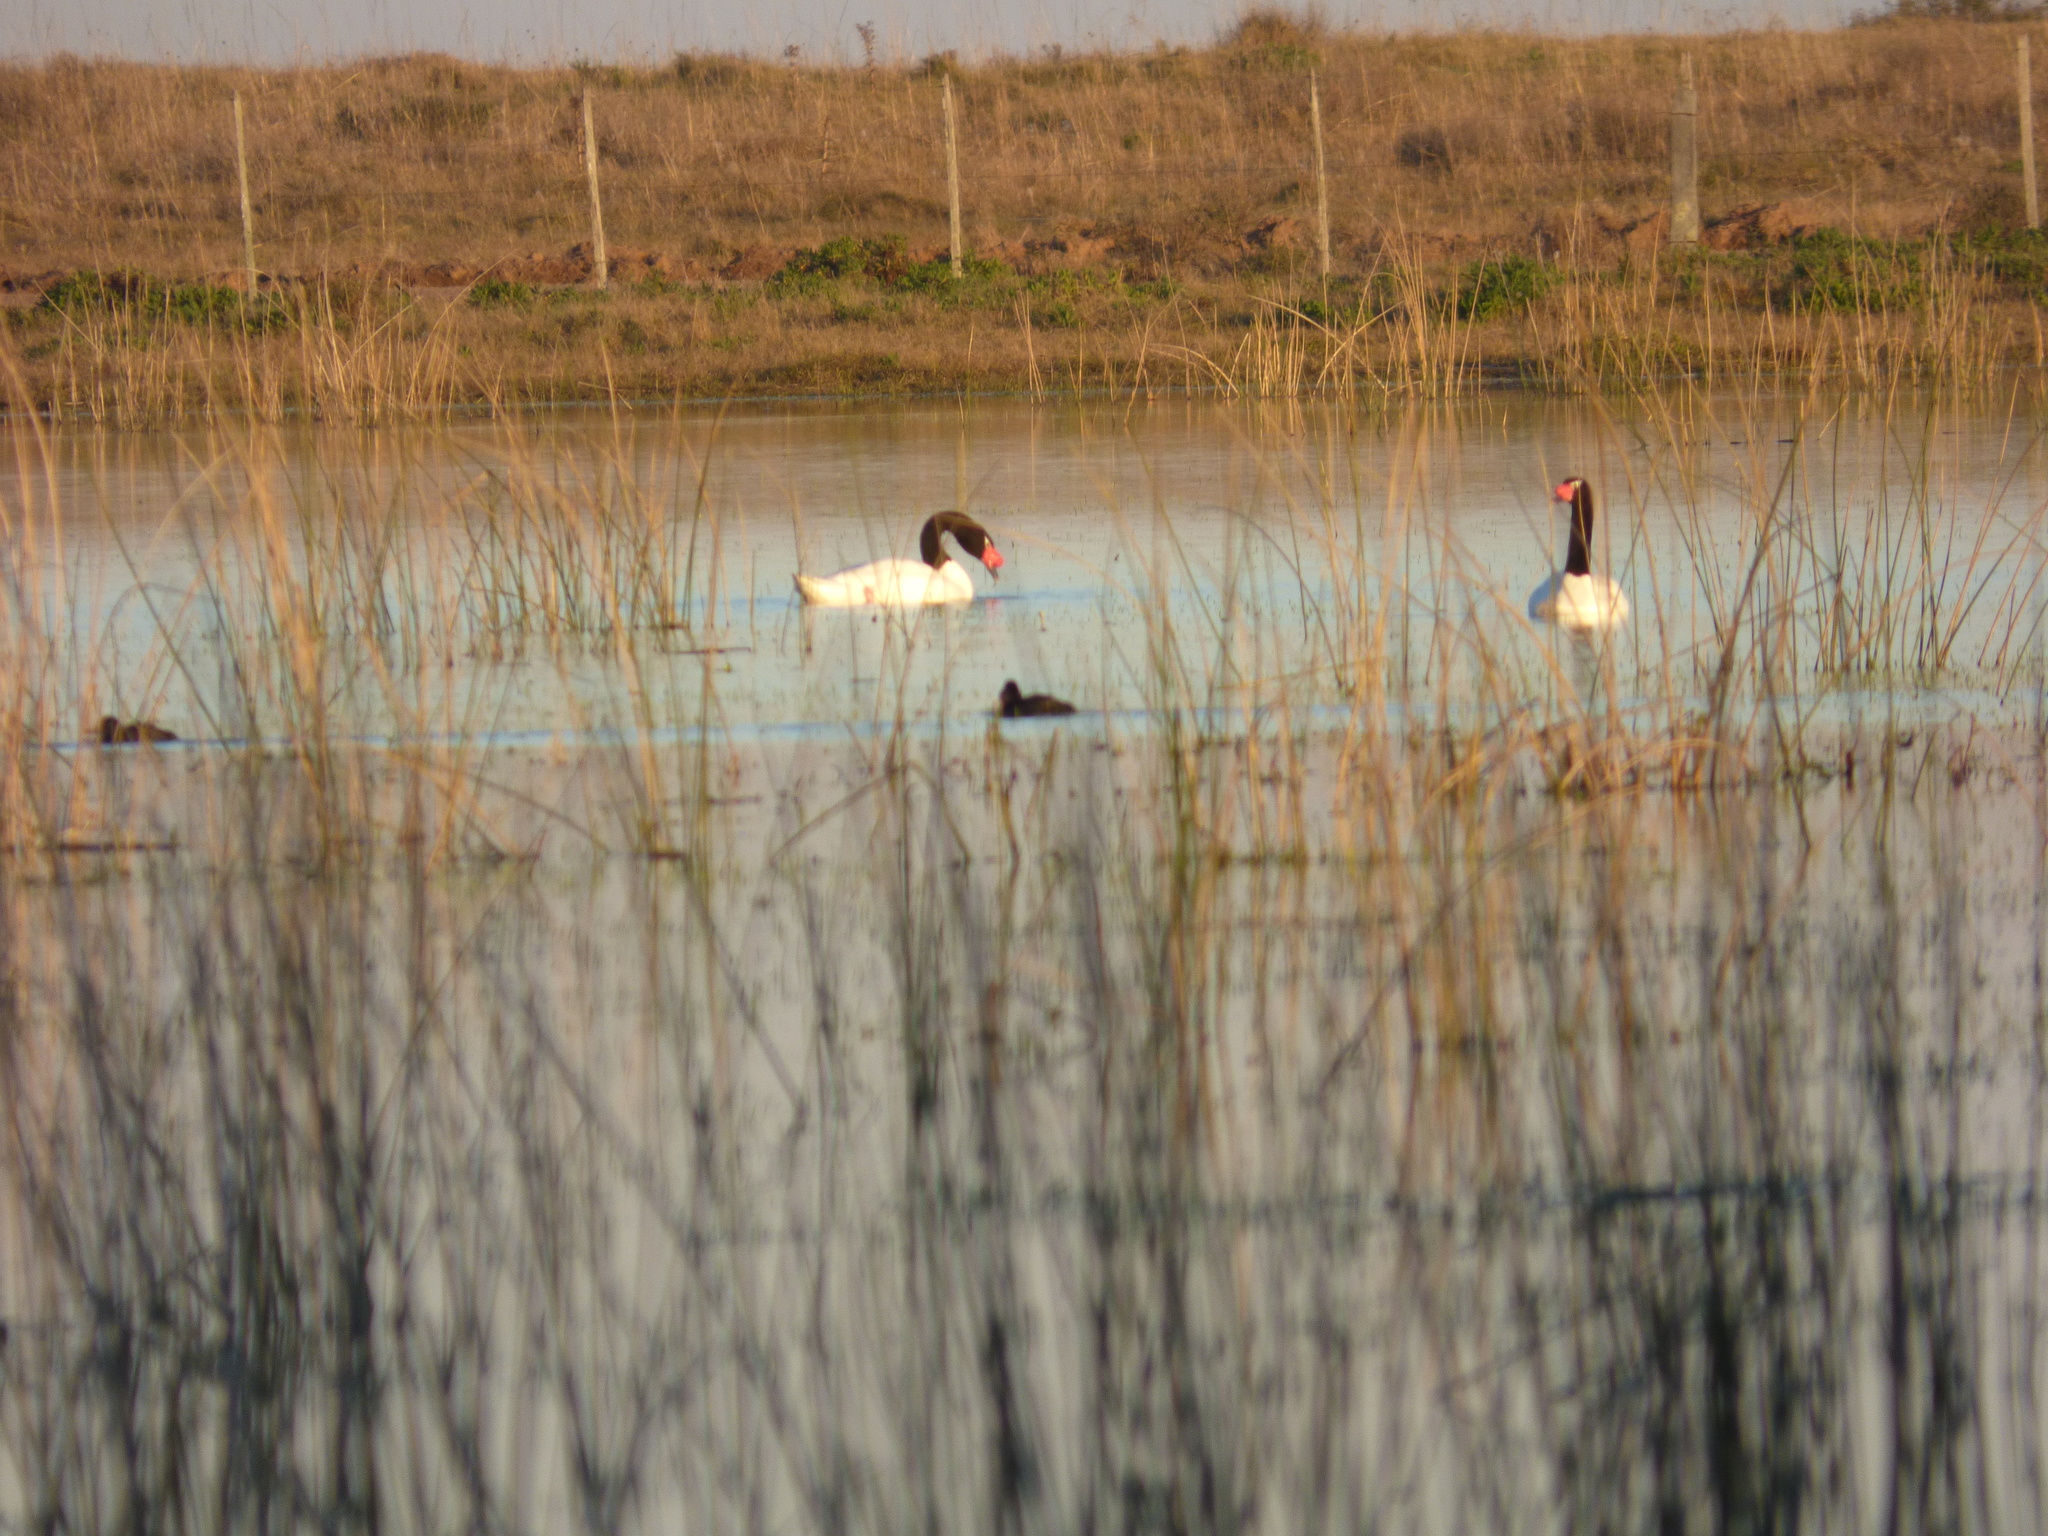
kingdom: Animalia
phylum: Chordata
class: Aves
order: Anseriformes
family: Anatidae
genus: Cygnus
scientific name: Cygnus melancoryphus
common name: Black-necked swan
